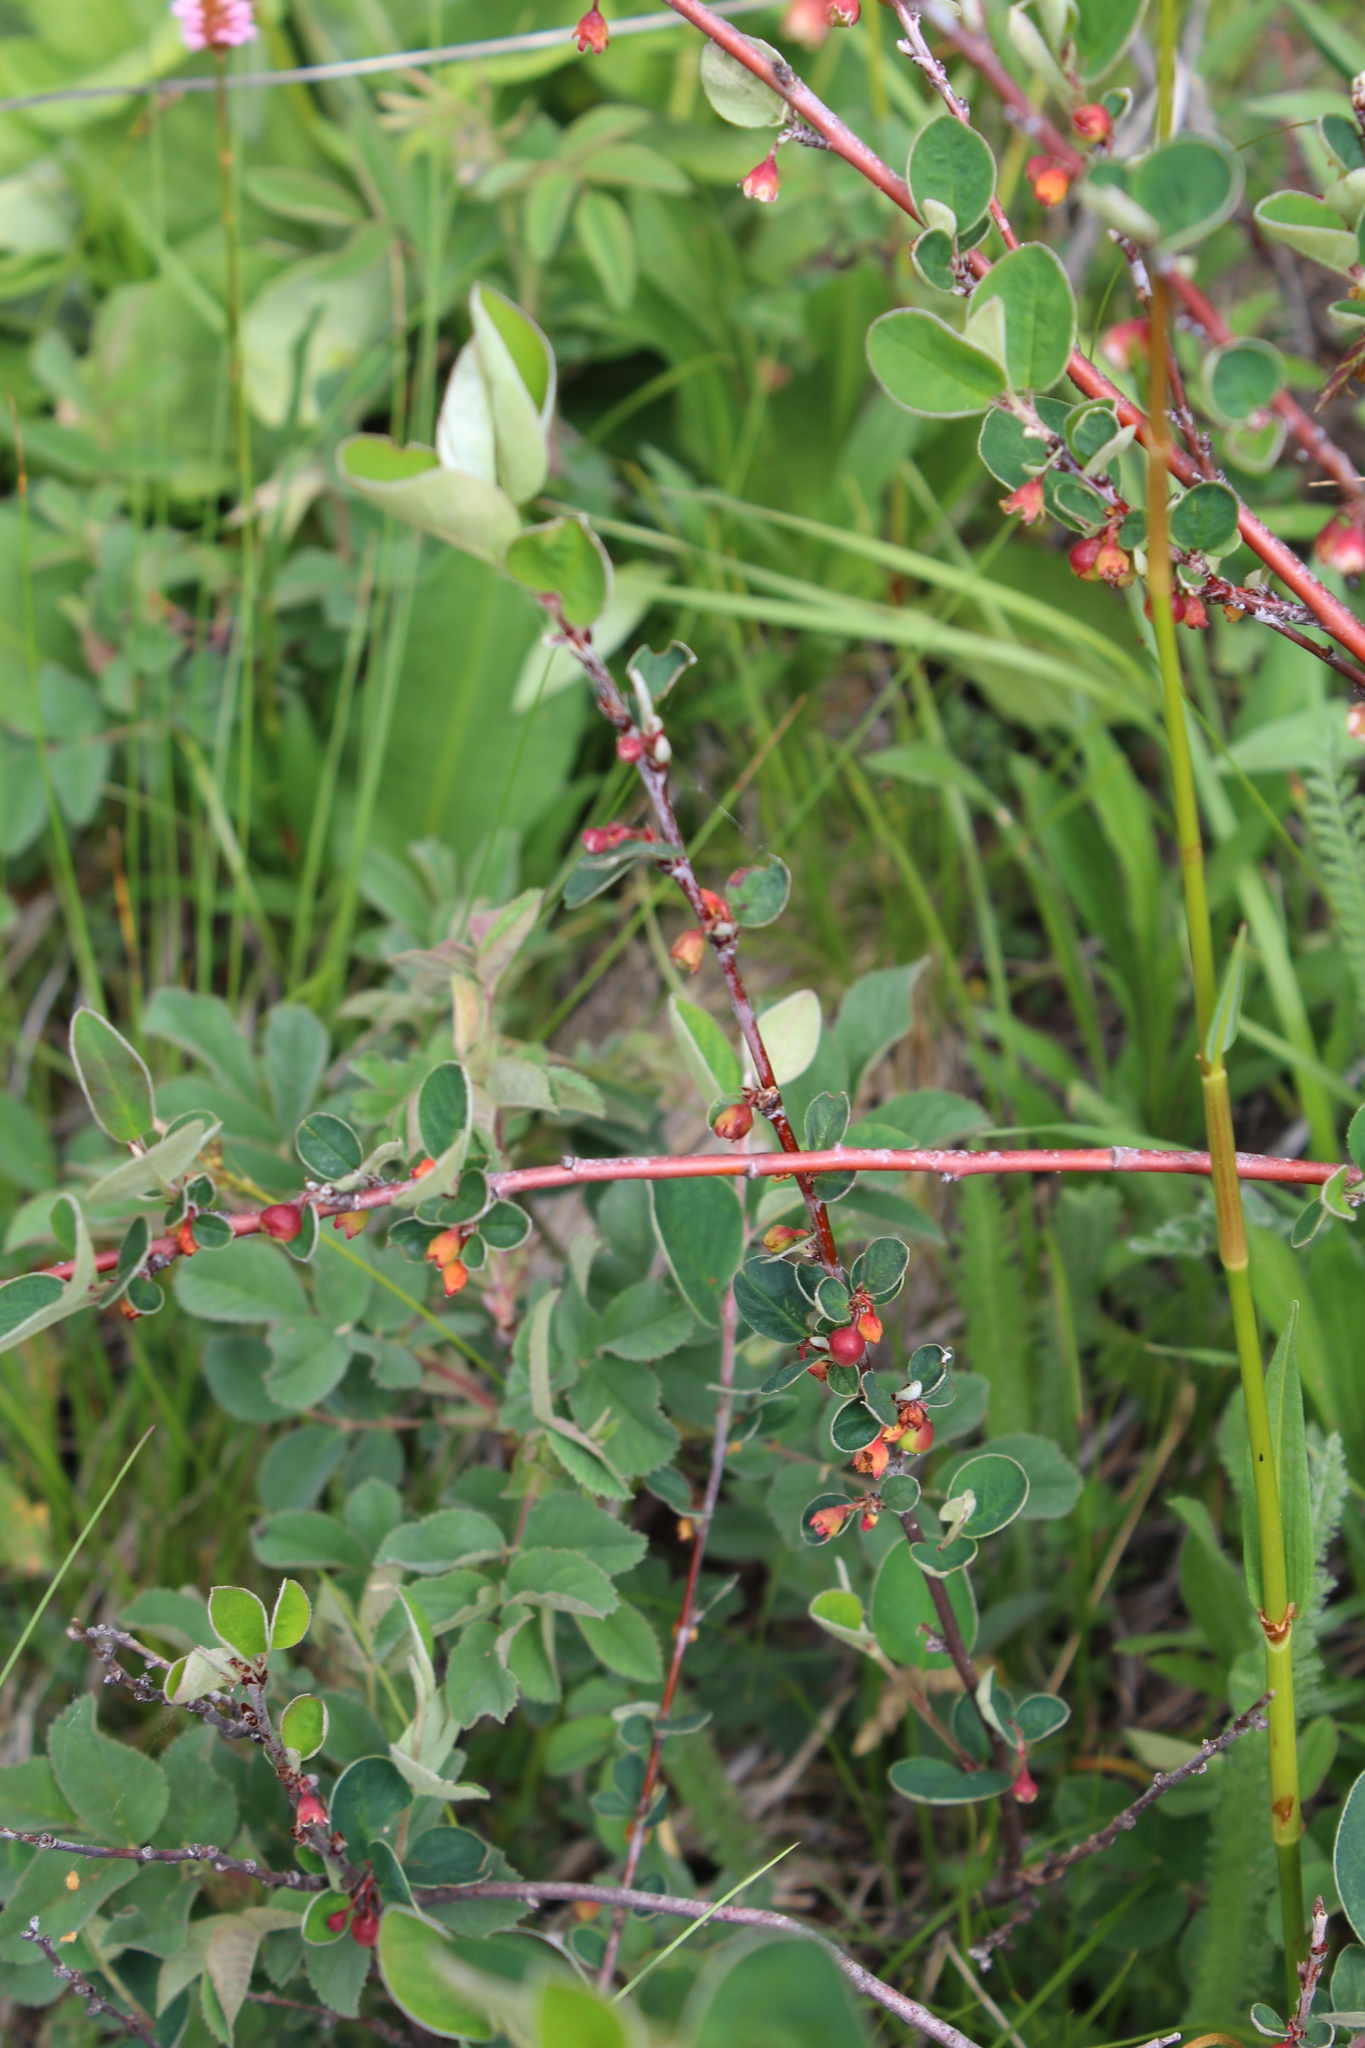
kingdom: Plantae
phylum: Tracheophyta
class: Magnoliopsida
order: Rosales
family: Rosaceae
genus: Cotoneaster
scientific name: Cotoneaster integerrimus
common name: Wild cotoneaster
